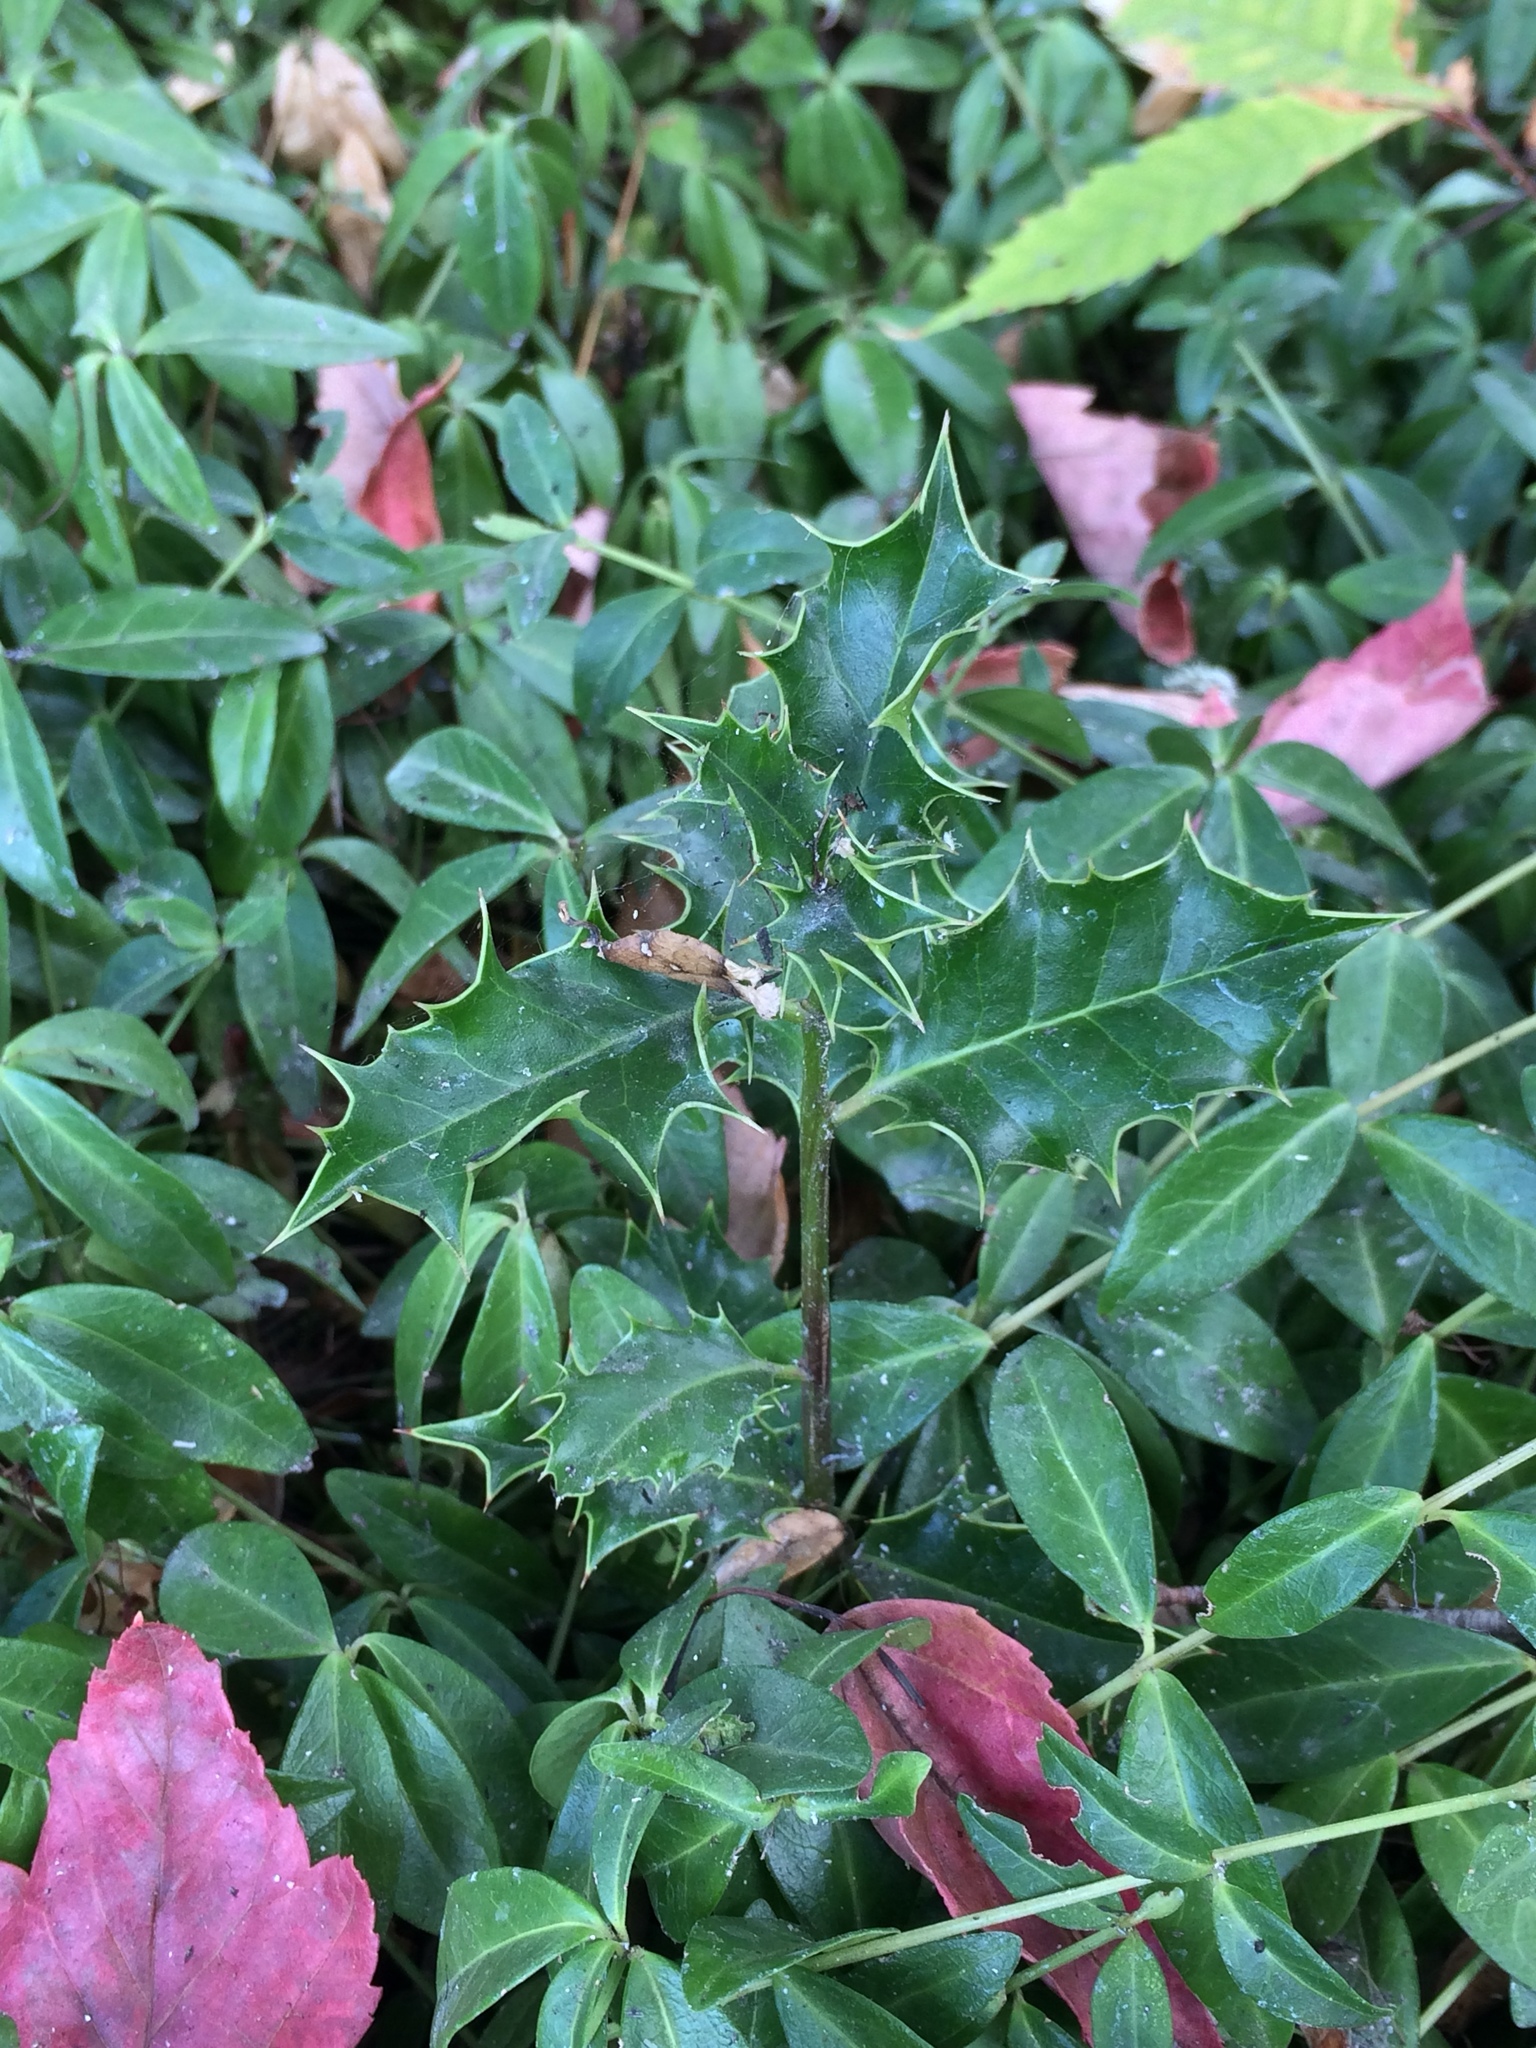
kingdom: Plantae
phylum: Tracheophyta
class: Magnoliopsida
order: Aquifoliales
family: Aquifoliaceae
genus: Ilex
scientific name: Ilex aquifolium
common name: English holly
